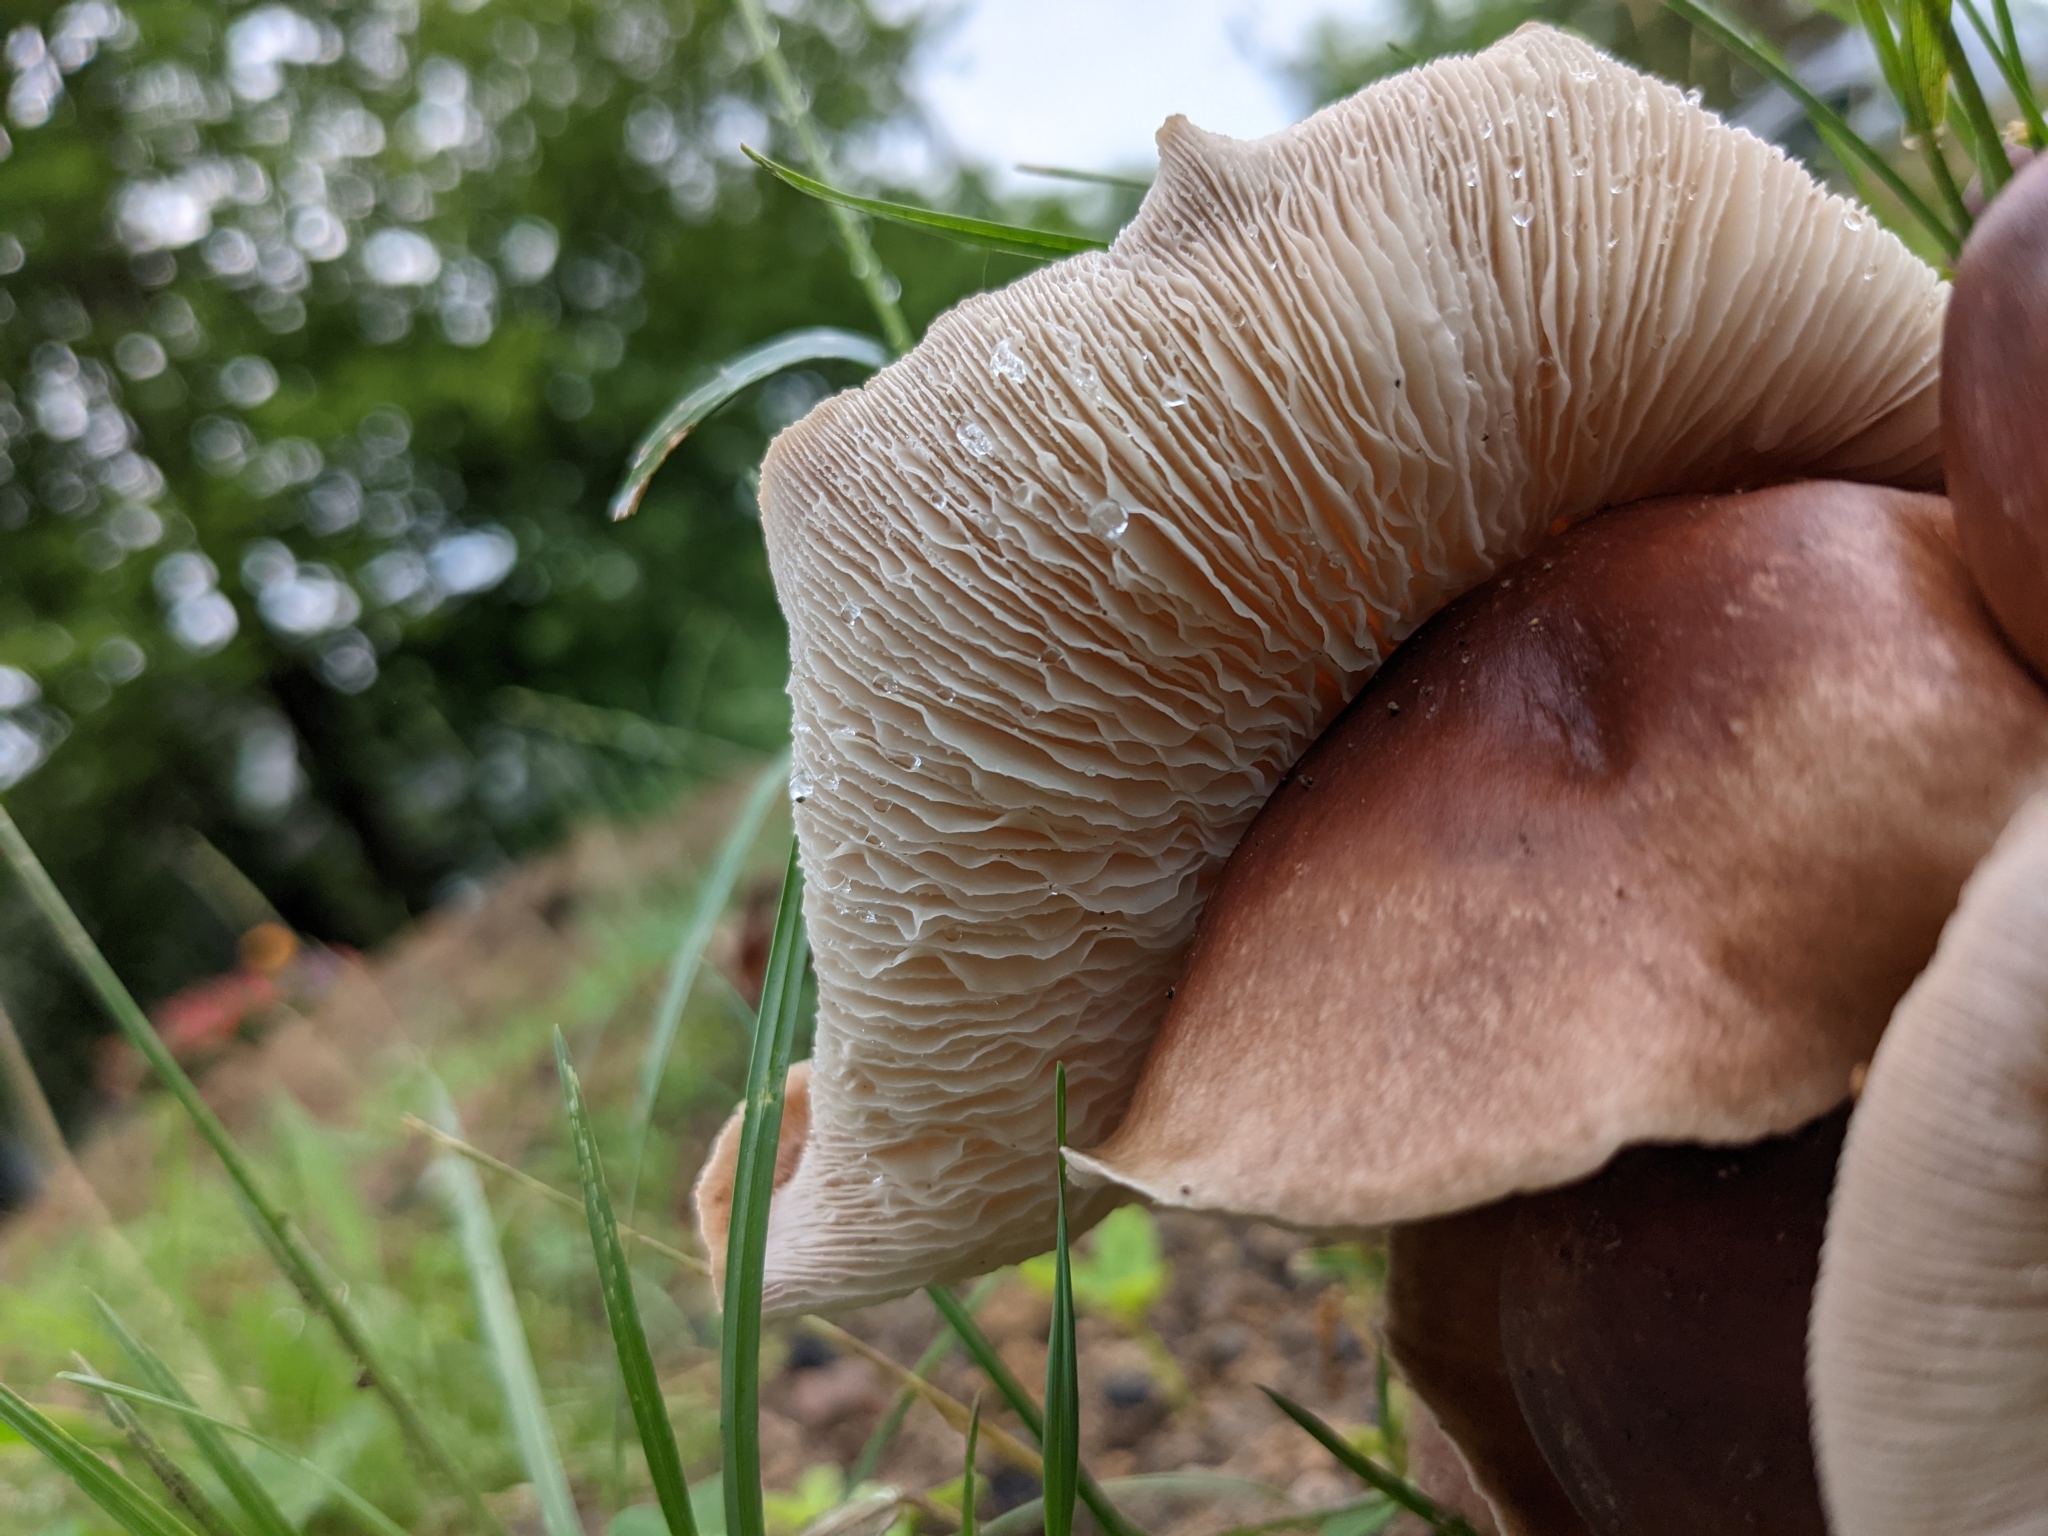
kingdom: Fungi
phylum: Basidiomycota
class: Agaricomycetes
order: Agaricales
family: Omphalotaceae
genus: Collybiopsis
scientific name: Collybiopsis luxurians
